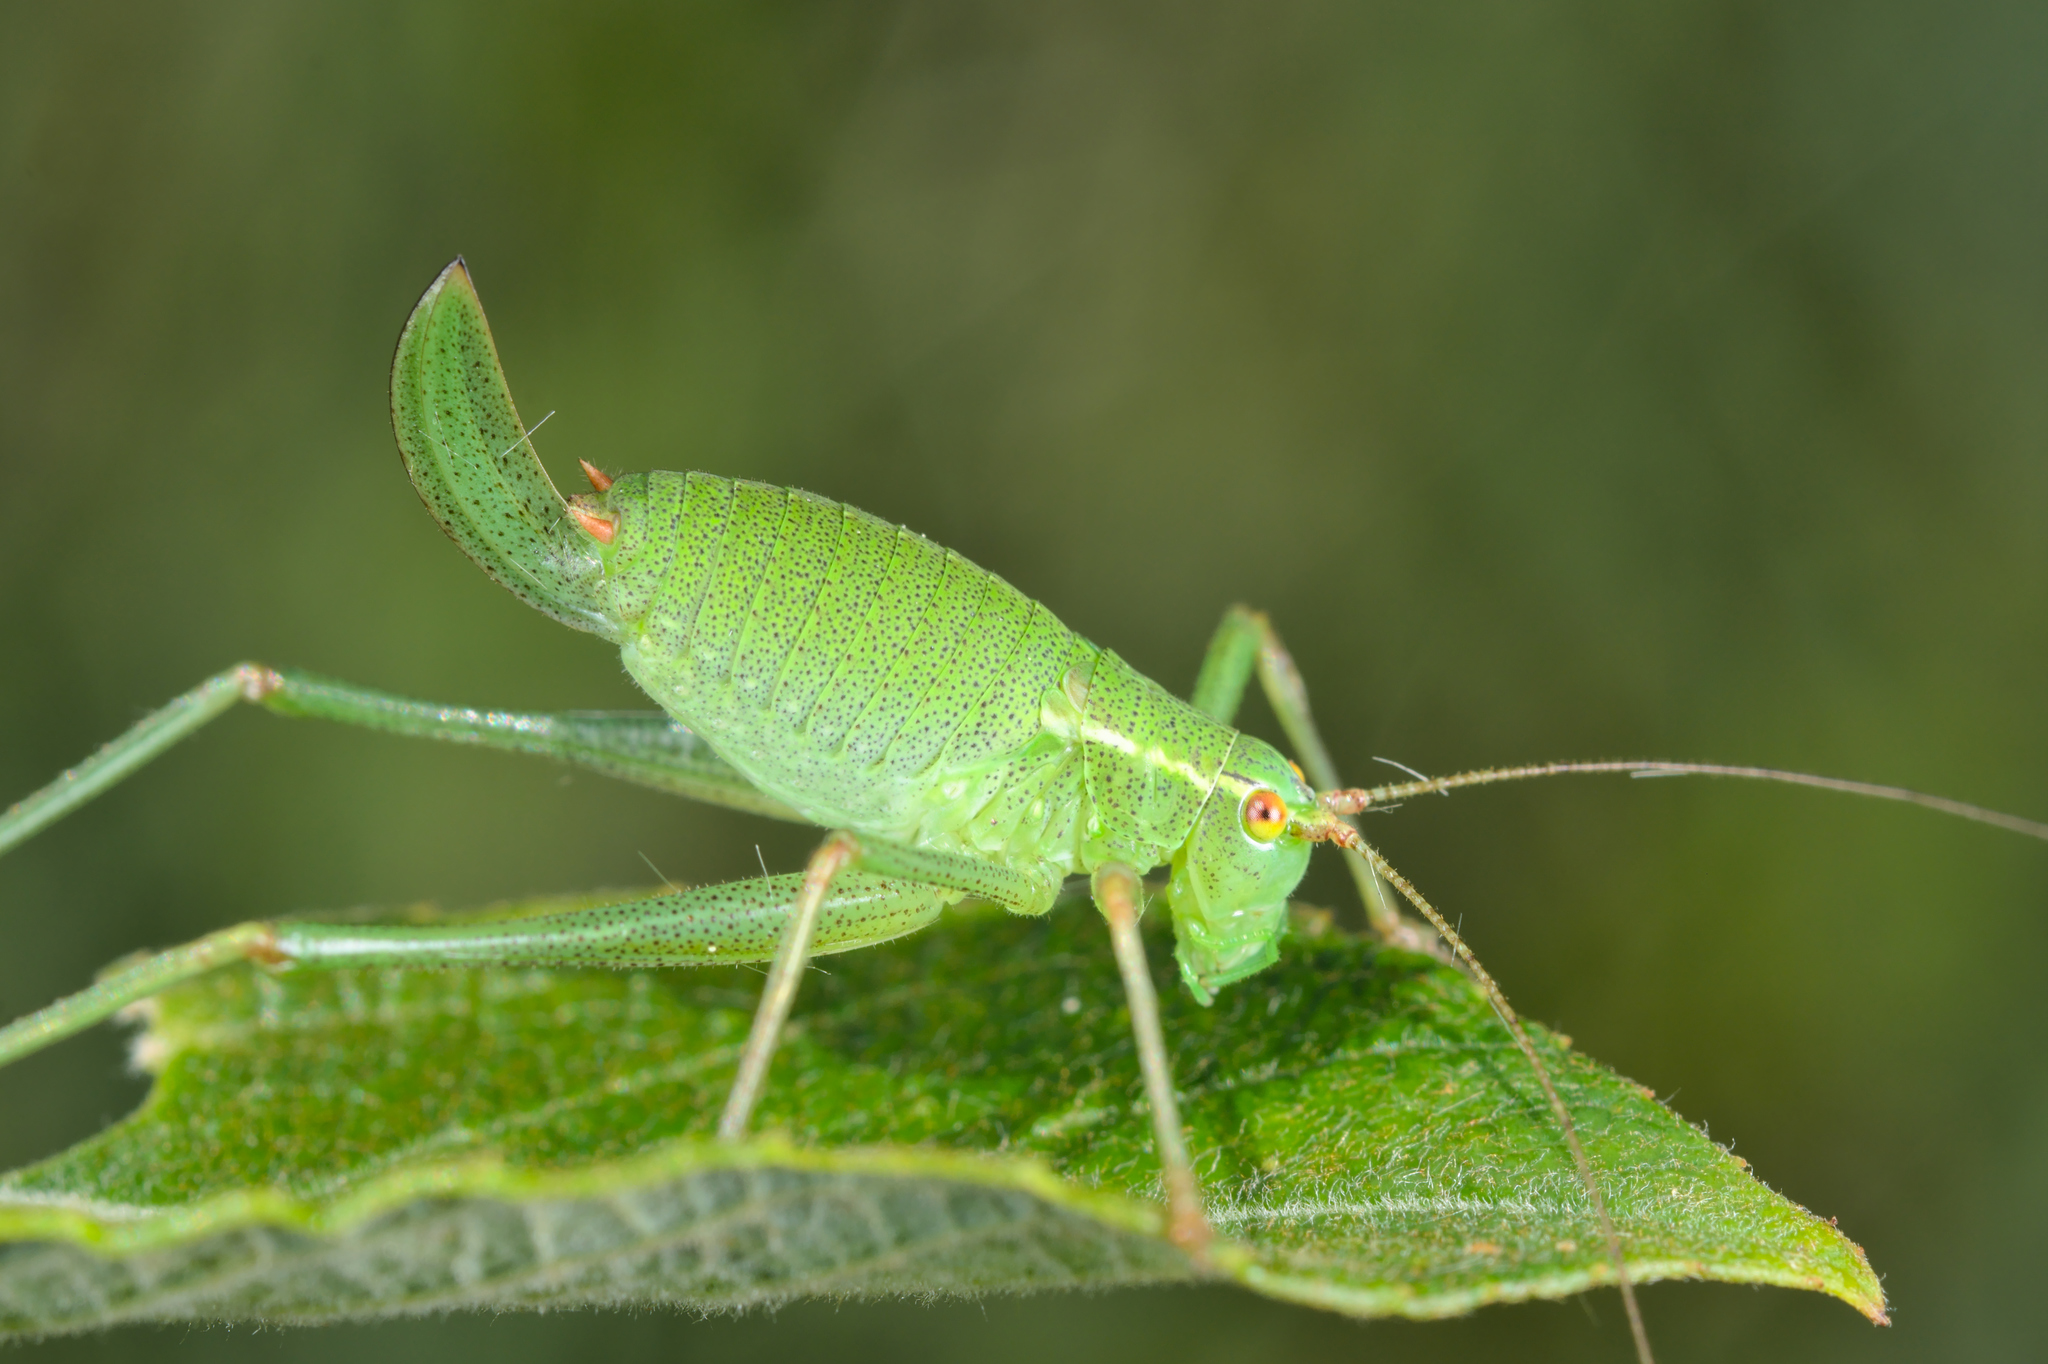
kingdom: Animalia
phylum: Arthropoda
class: Insecta
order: Orthoptera
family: Tettigoniidae
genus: Leptophyes
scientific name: Leptophyes punctatissima
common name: Speckled bush-cricket
